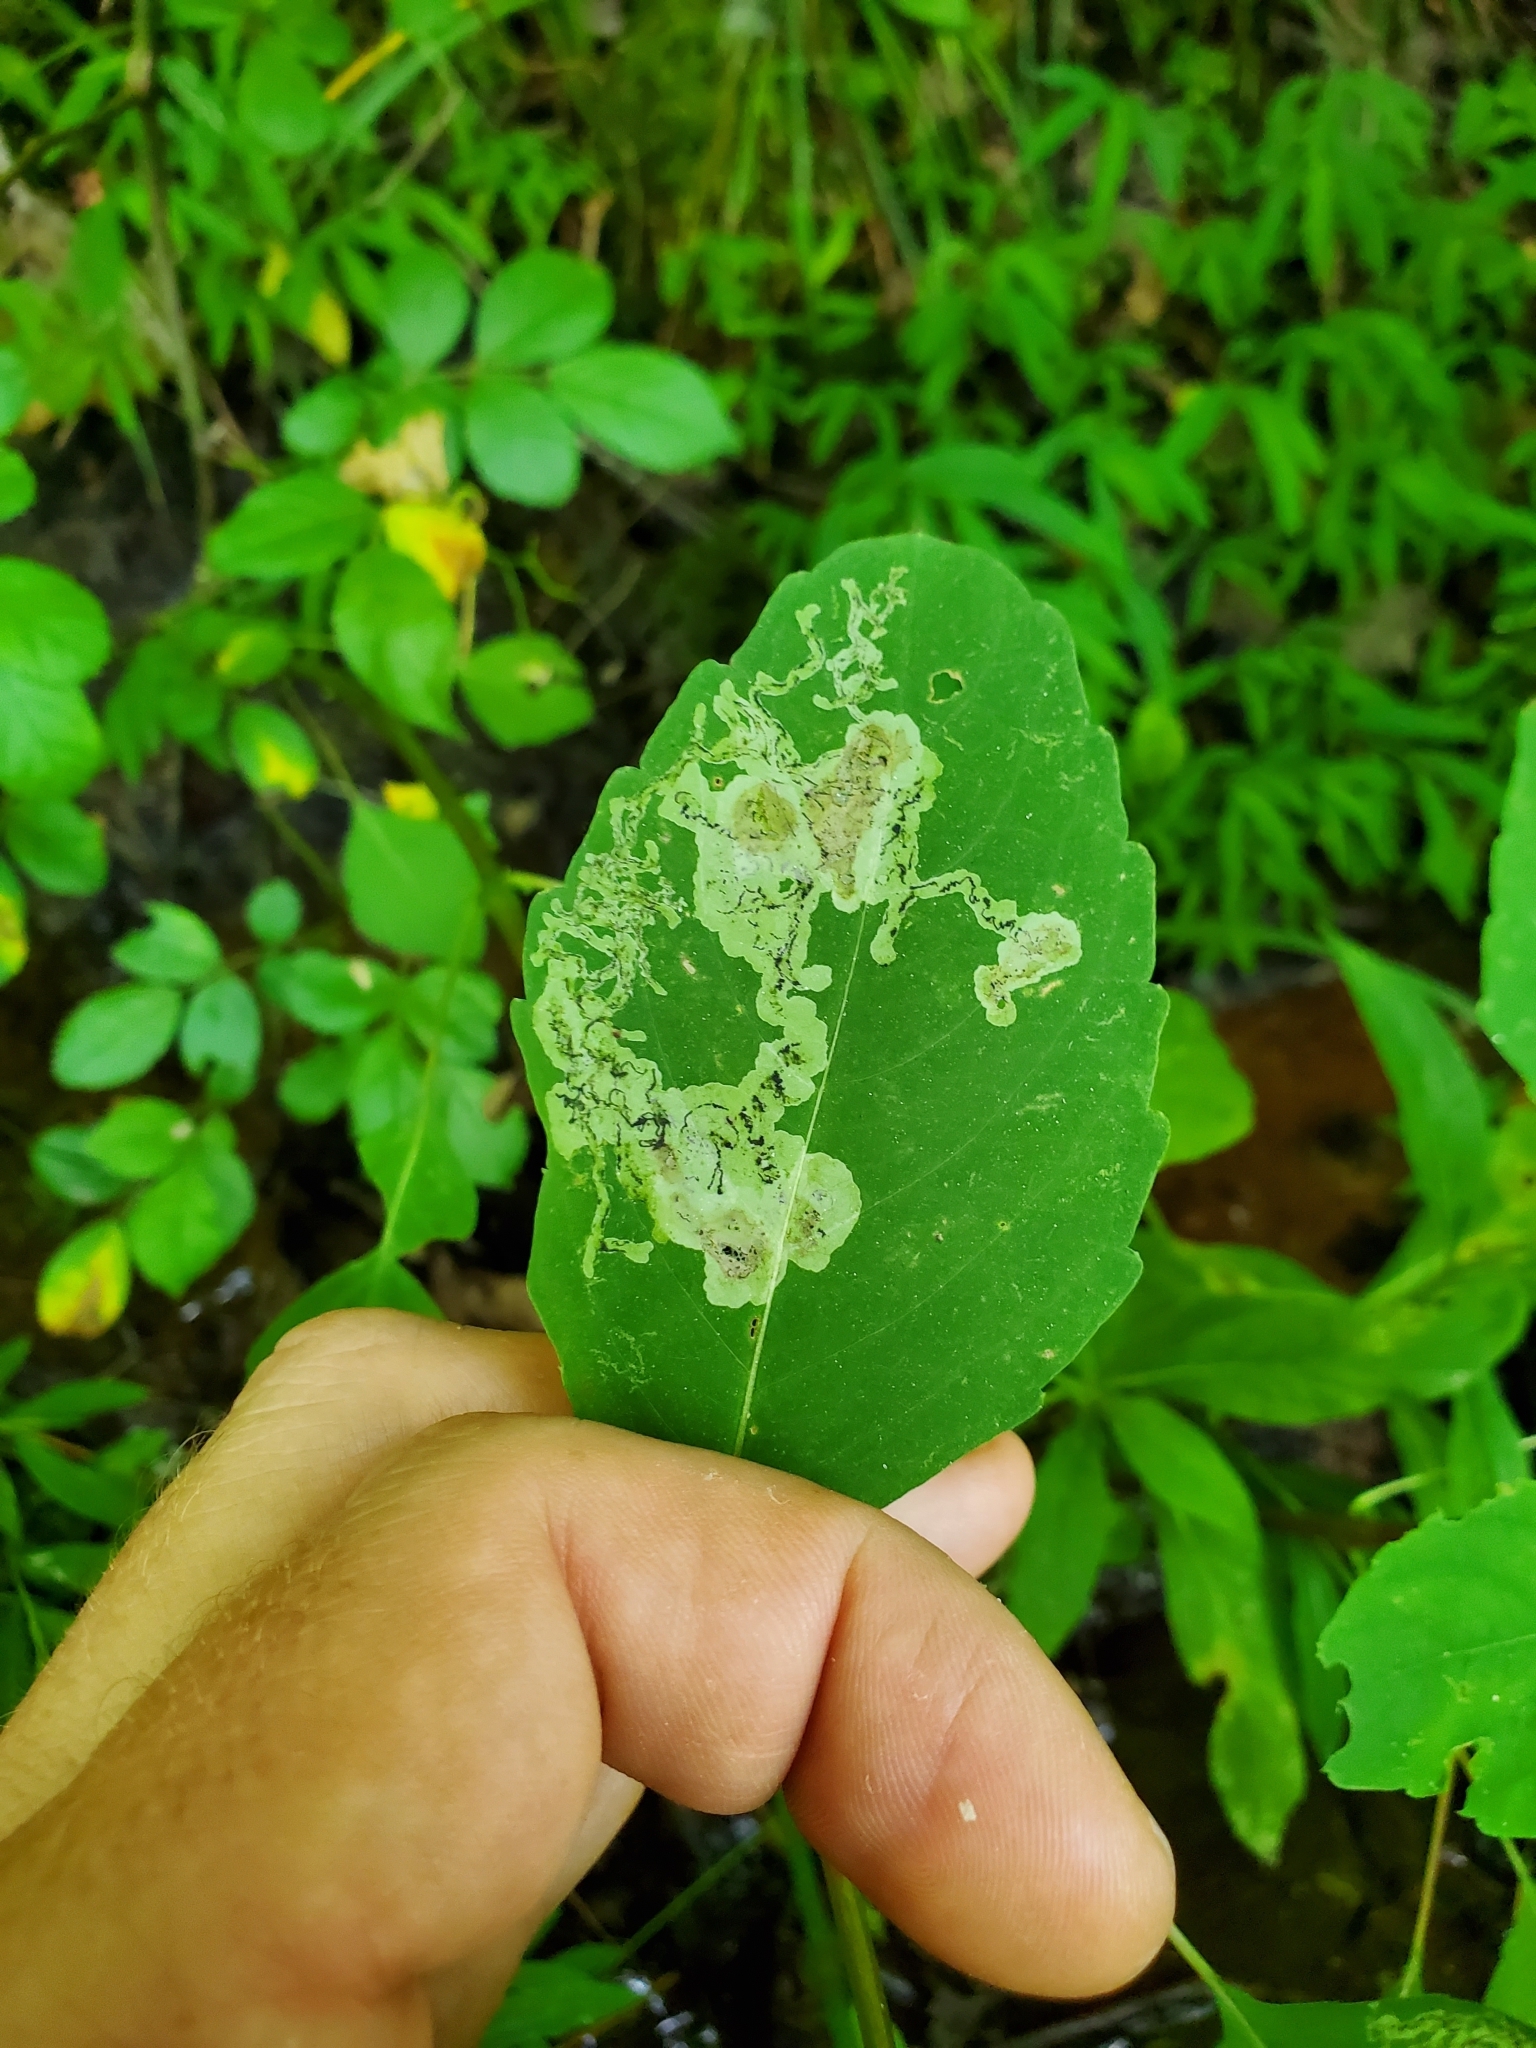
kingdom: Animalia
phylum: Arthropoda
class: Insecta
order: Diptera
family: Agromyzidae
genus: Phytoliriomyza
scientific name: Phytoliriomyza melampyga
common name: Jewelweed leaf-miner fly
